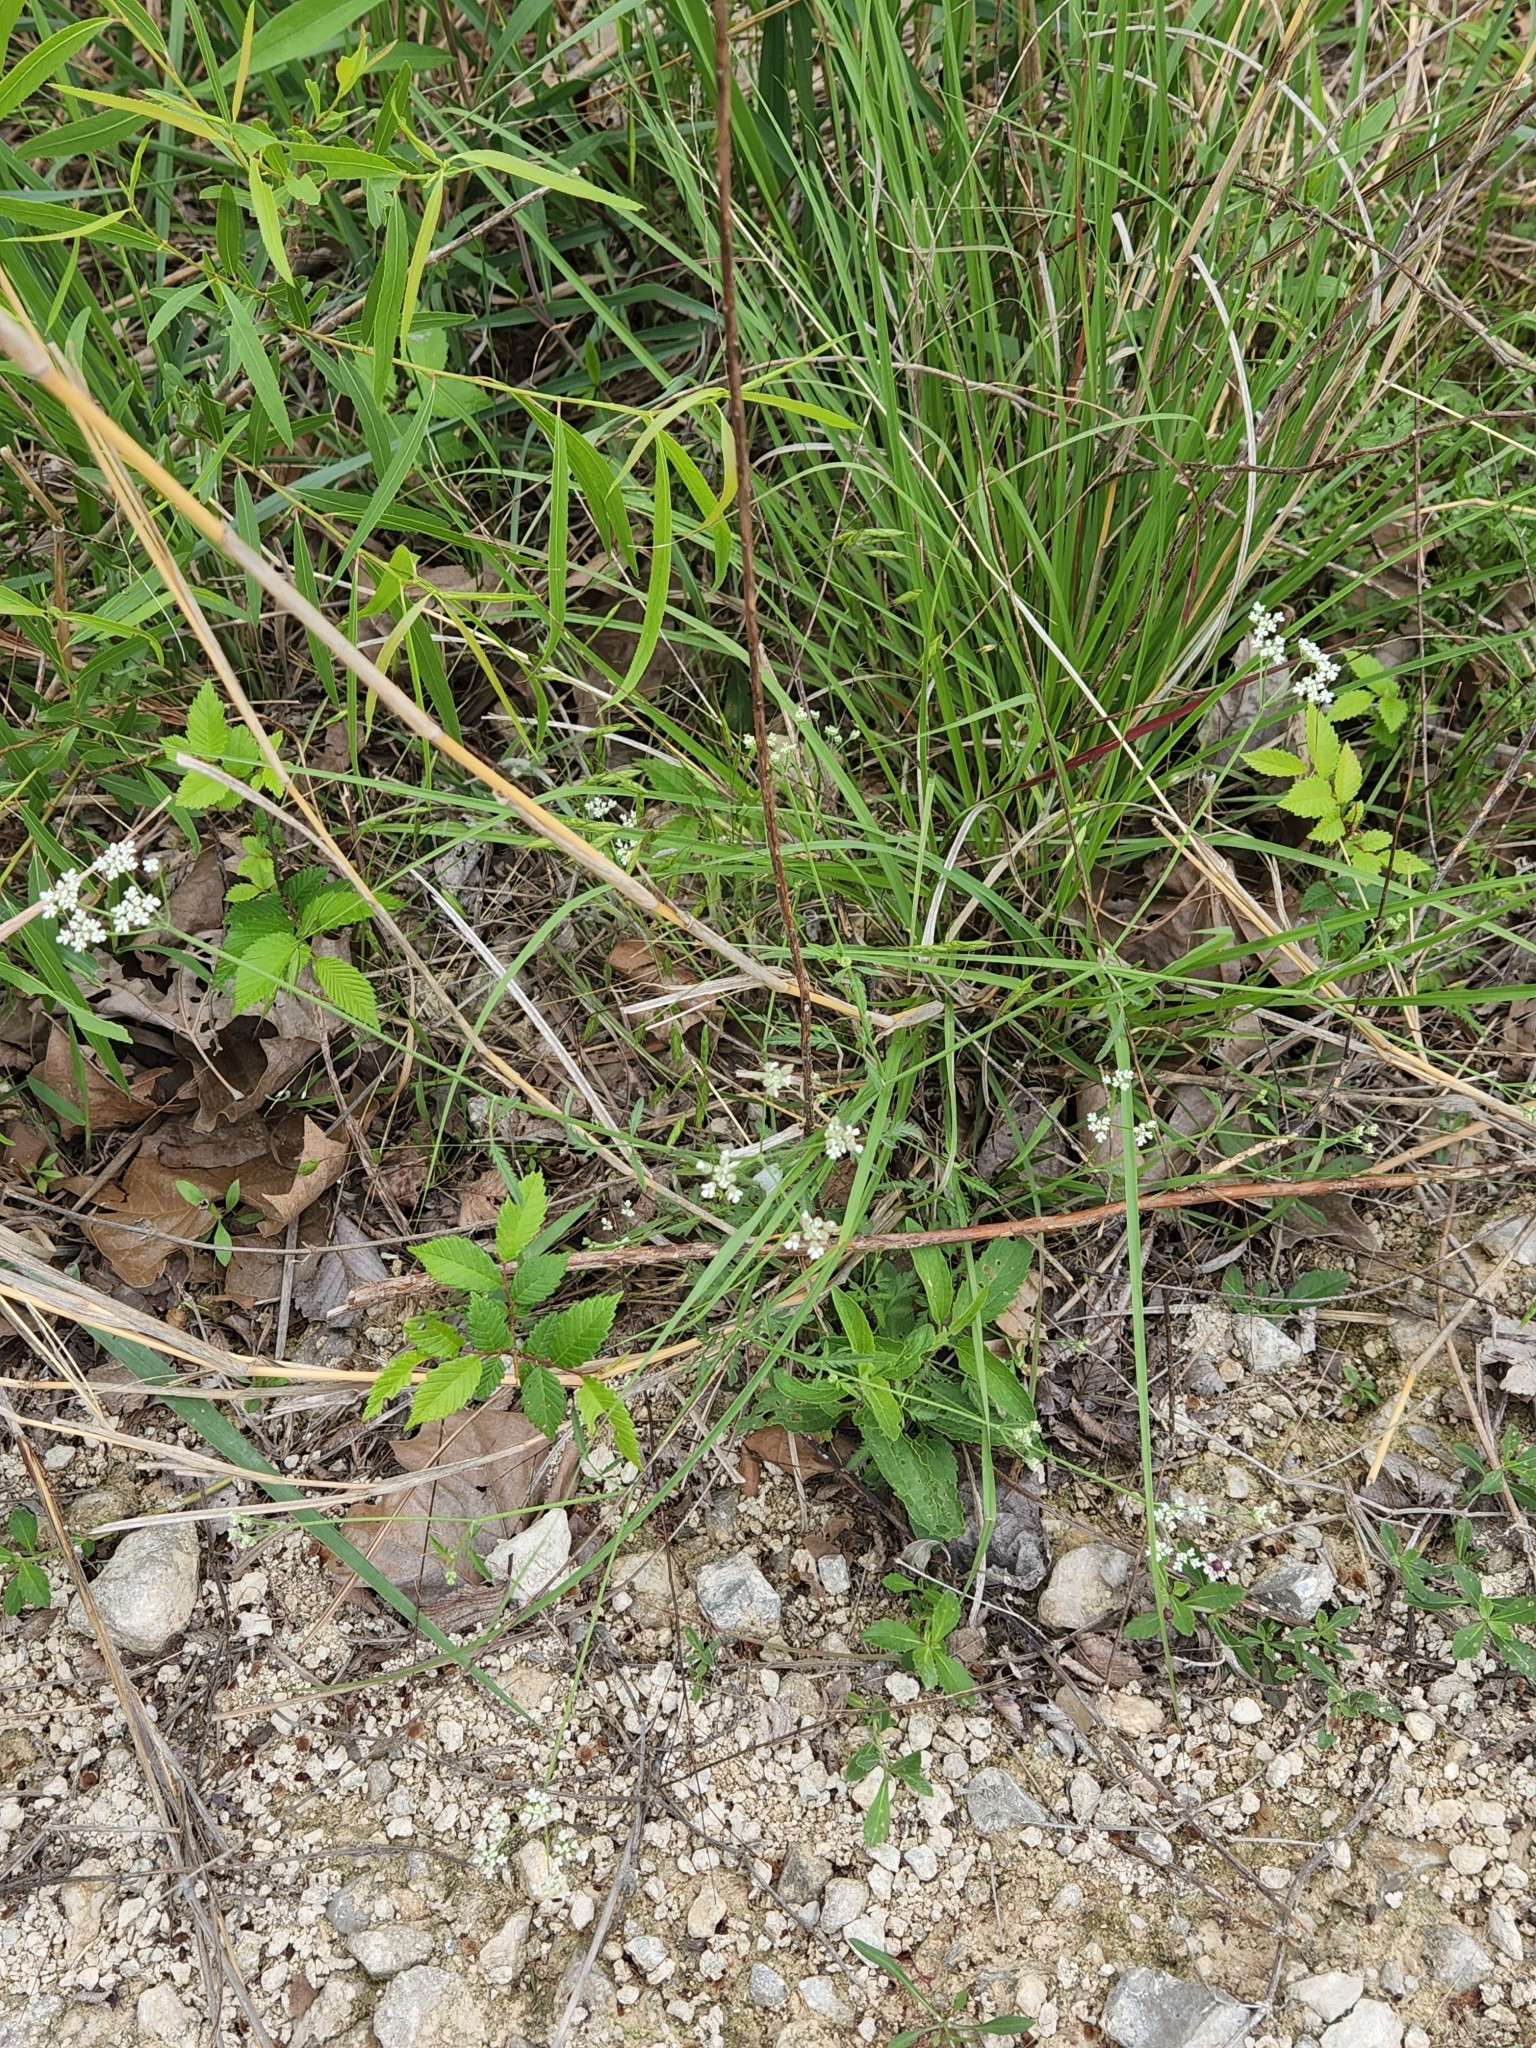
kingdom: Plantae
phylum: Tracheophyta
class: Magnoliopsida
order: Apiales
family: Apiaceae
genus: Torilis
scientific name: Torilis arvensis
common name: Spreading hedge-parsley
